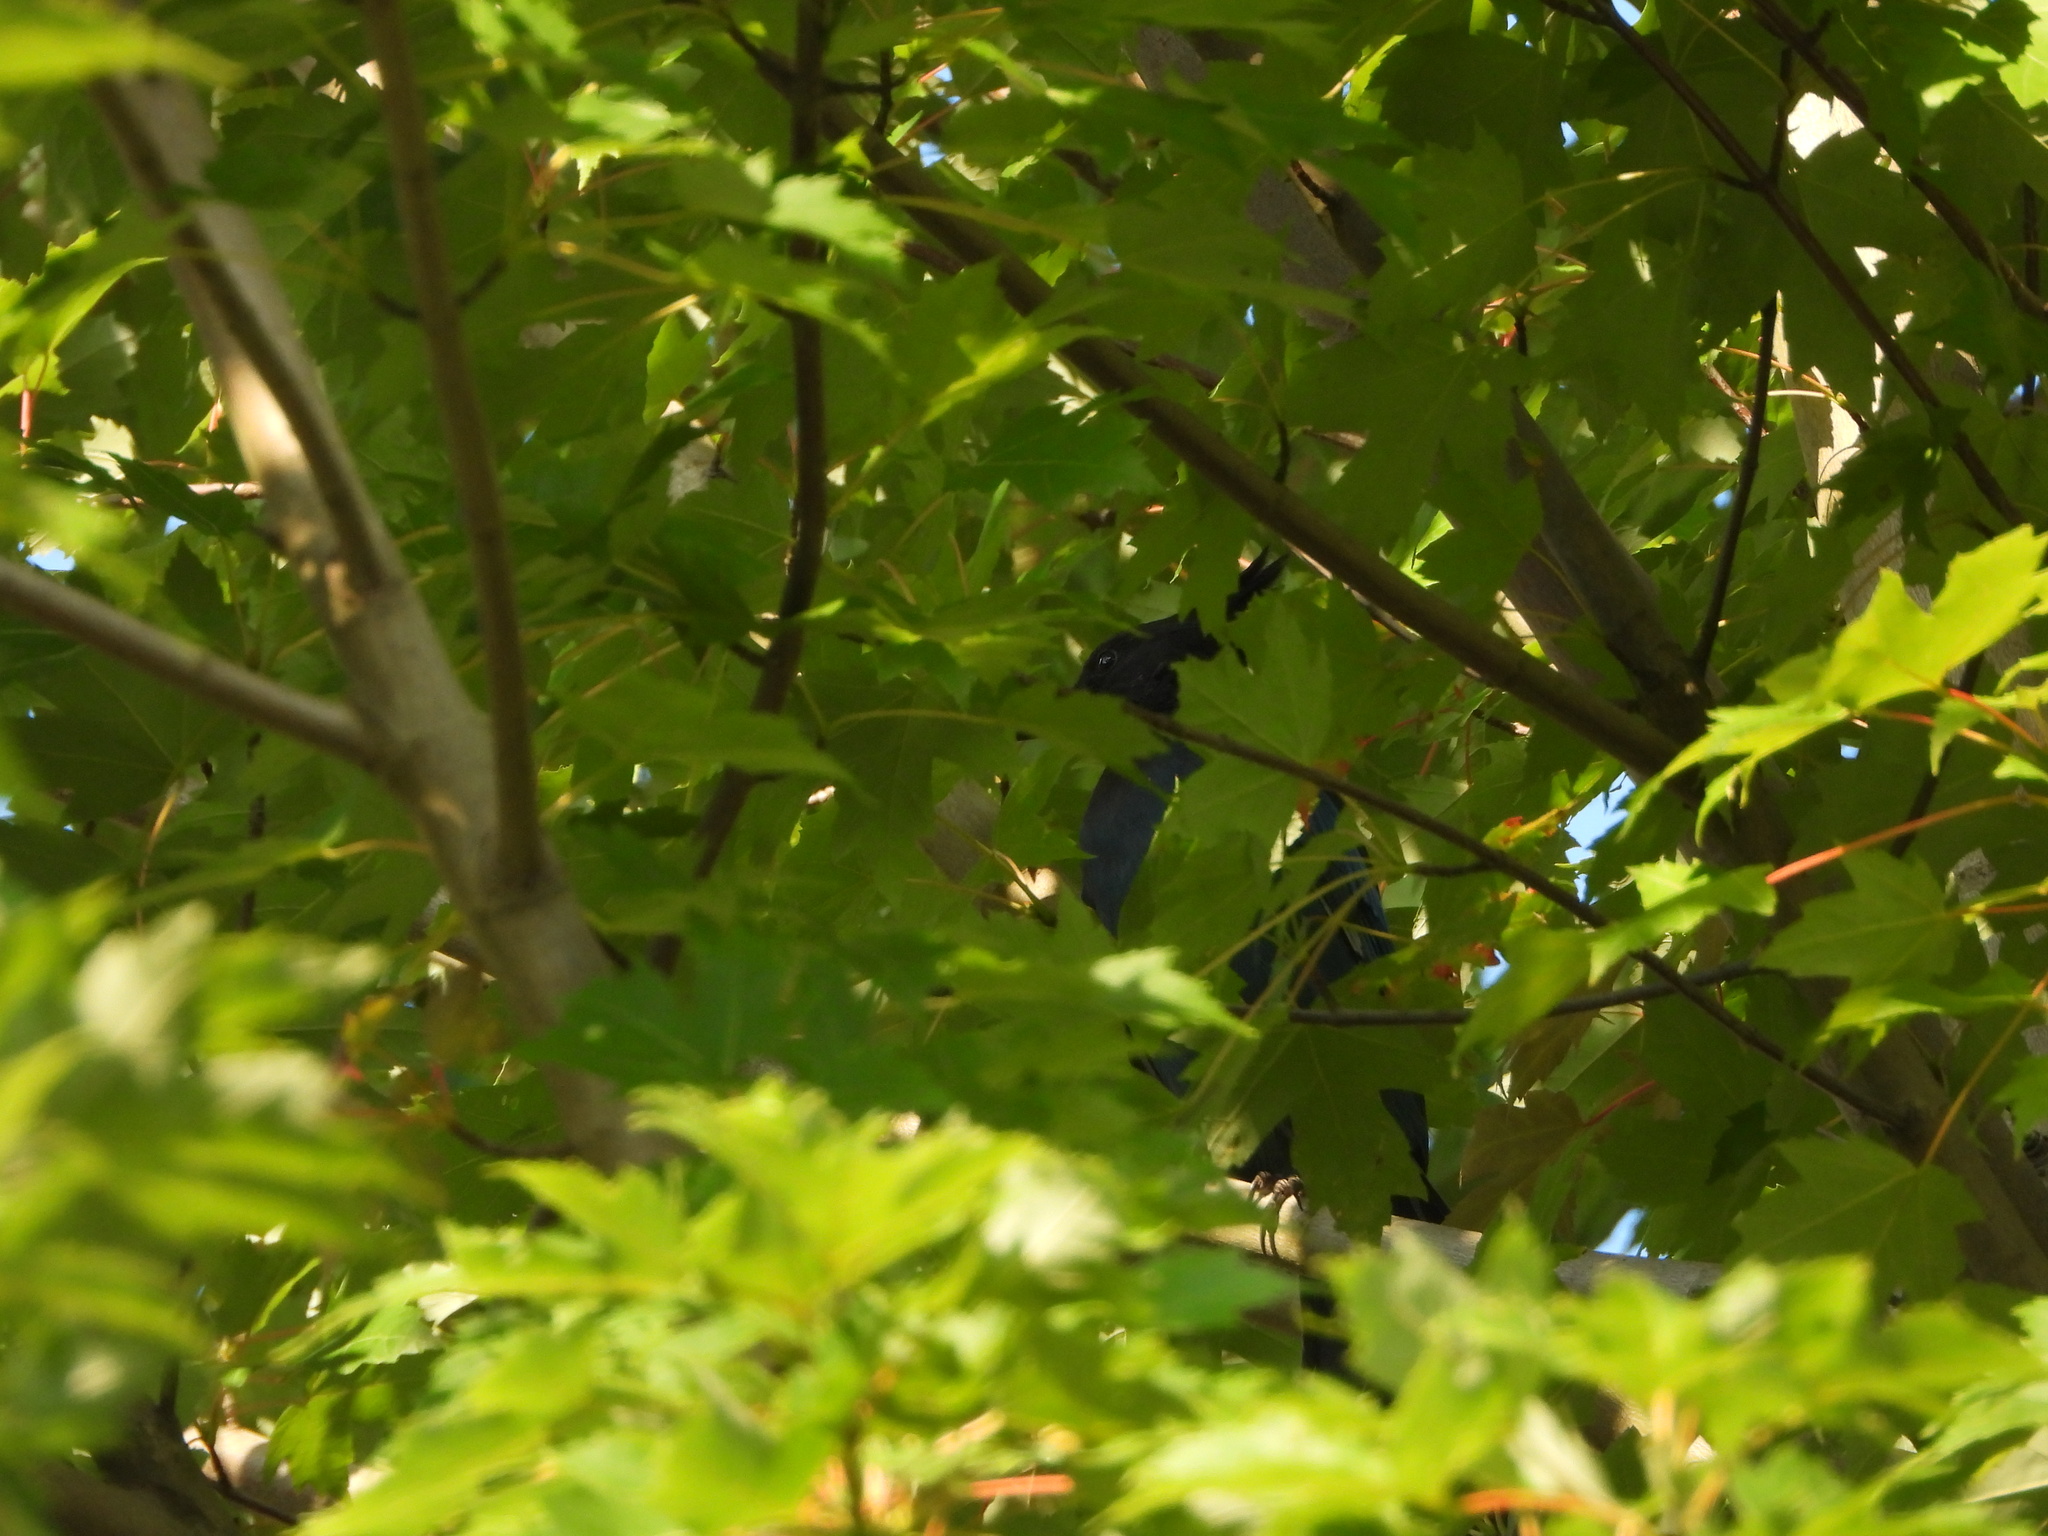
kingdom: Animalia
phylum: Chordata
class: Aves
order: Passeriformes
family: Corvidae
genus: Cyanocitta
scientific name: Cyanocitta stelleri
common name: Steller's jay
